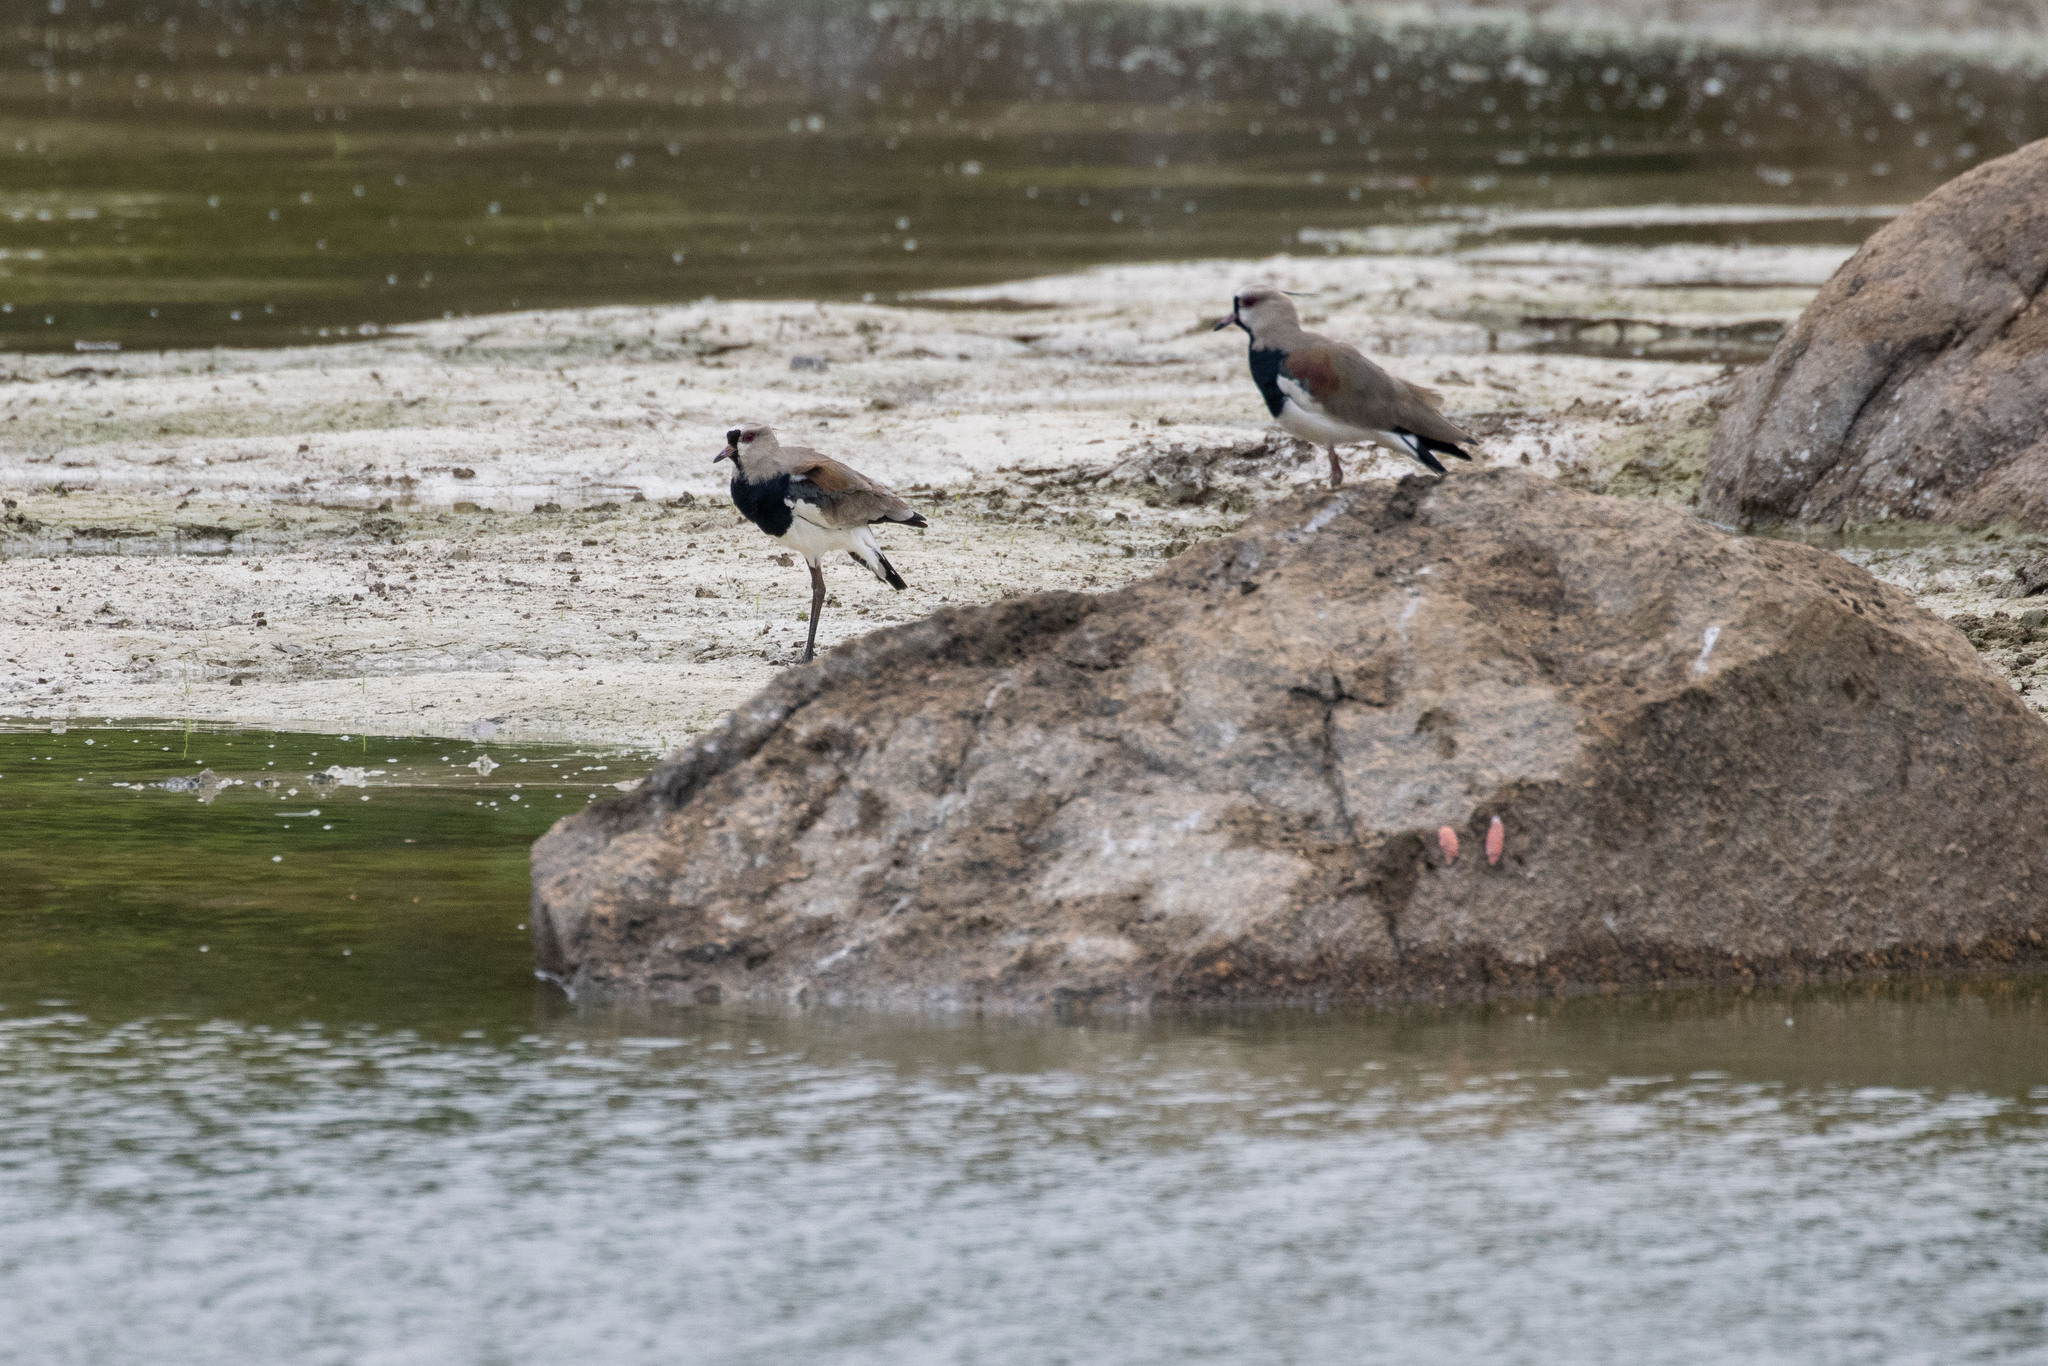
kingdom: Animalia
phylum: Chordata
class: Aves
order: Charadriiformes
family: Charadriidae
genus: Vanellus
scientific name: Vanellus chilensis
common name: Southern lapwing
